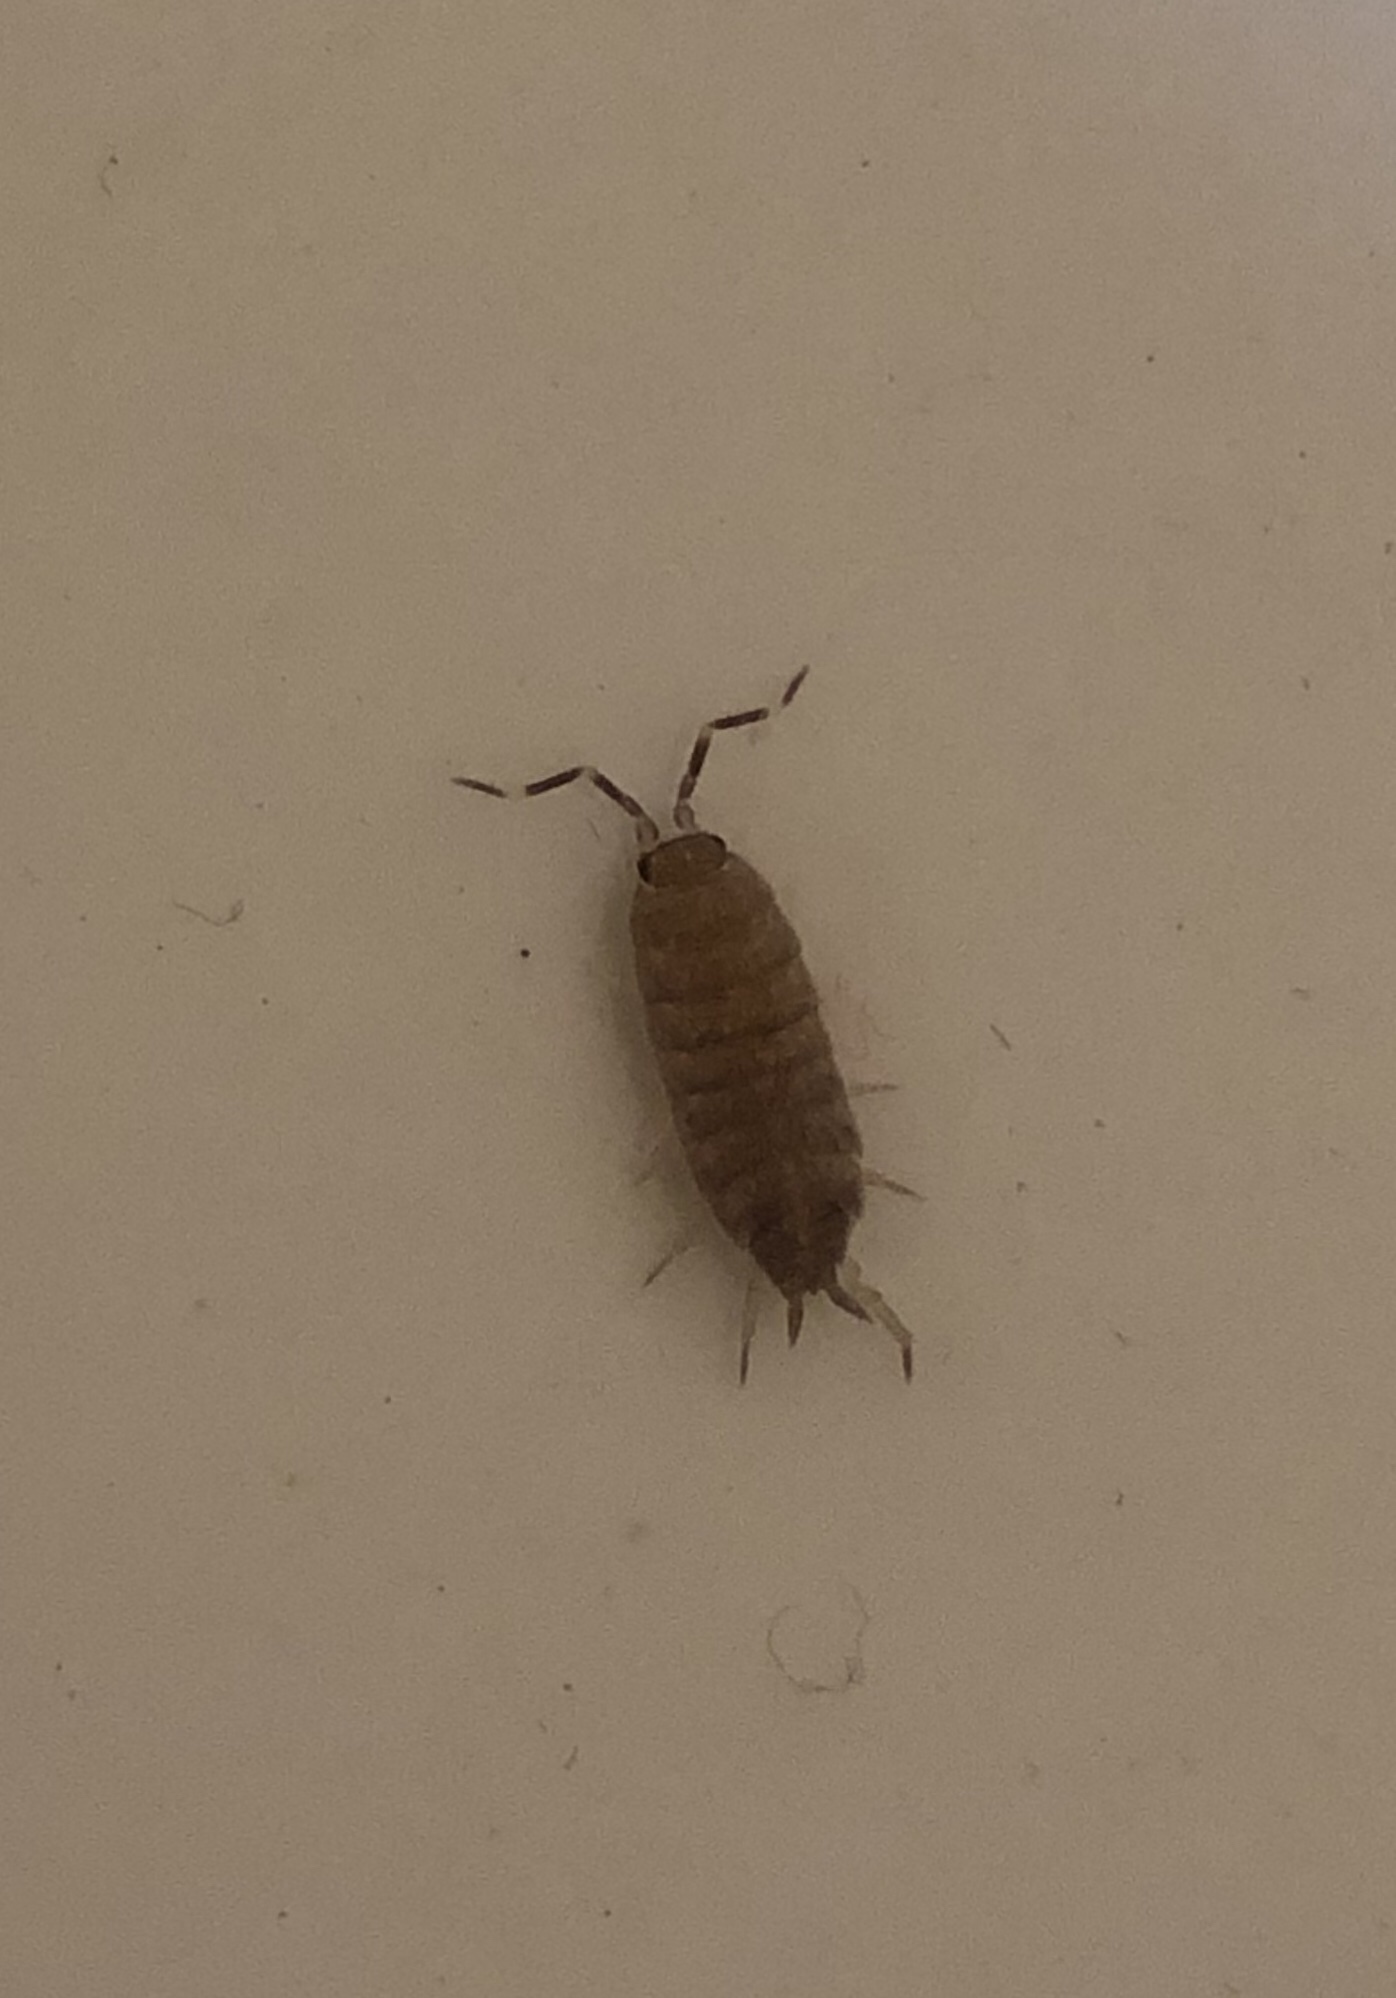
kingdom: Animalia
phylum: Arthropoda
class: Malacostraca
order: Isopoda
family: Porcellionidae
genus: Porcellionides
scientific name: Porcellionides pruinosus
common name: Plum woodlouse
